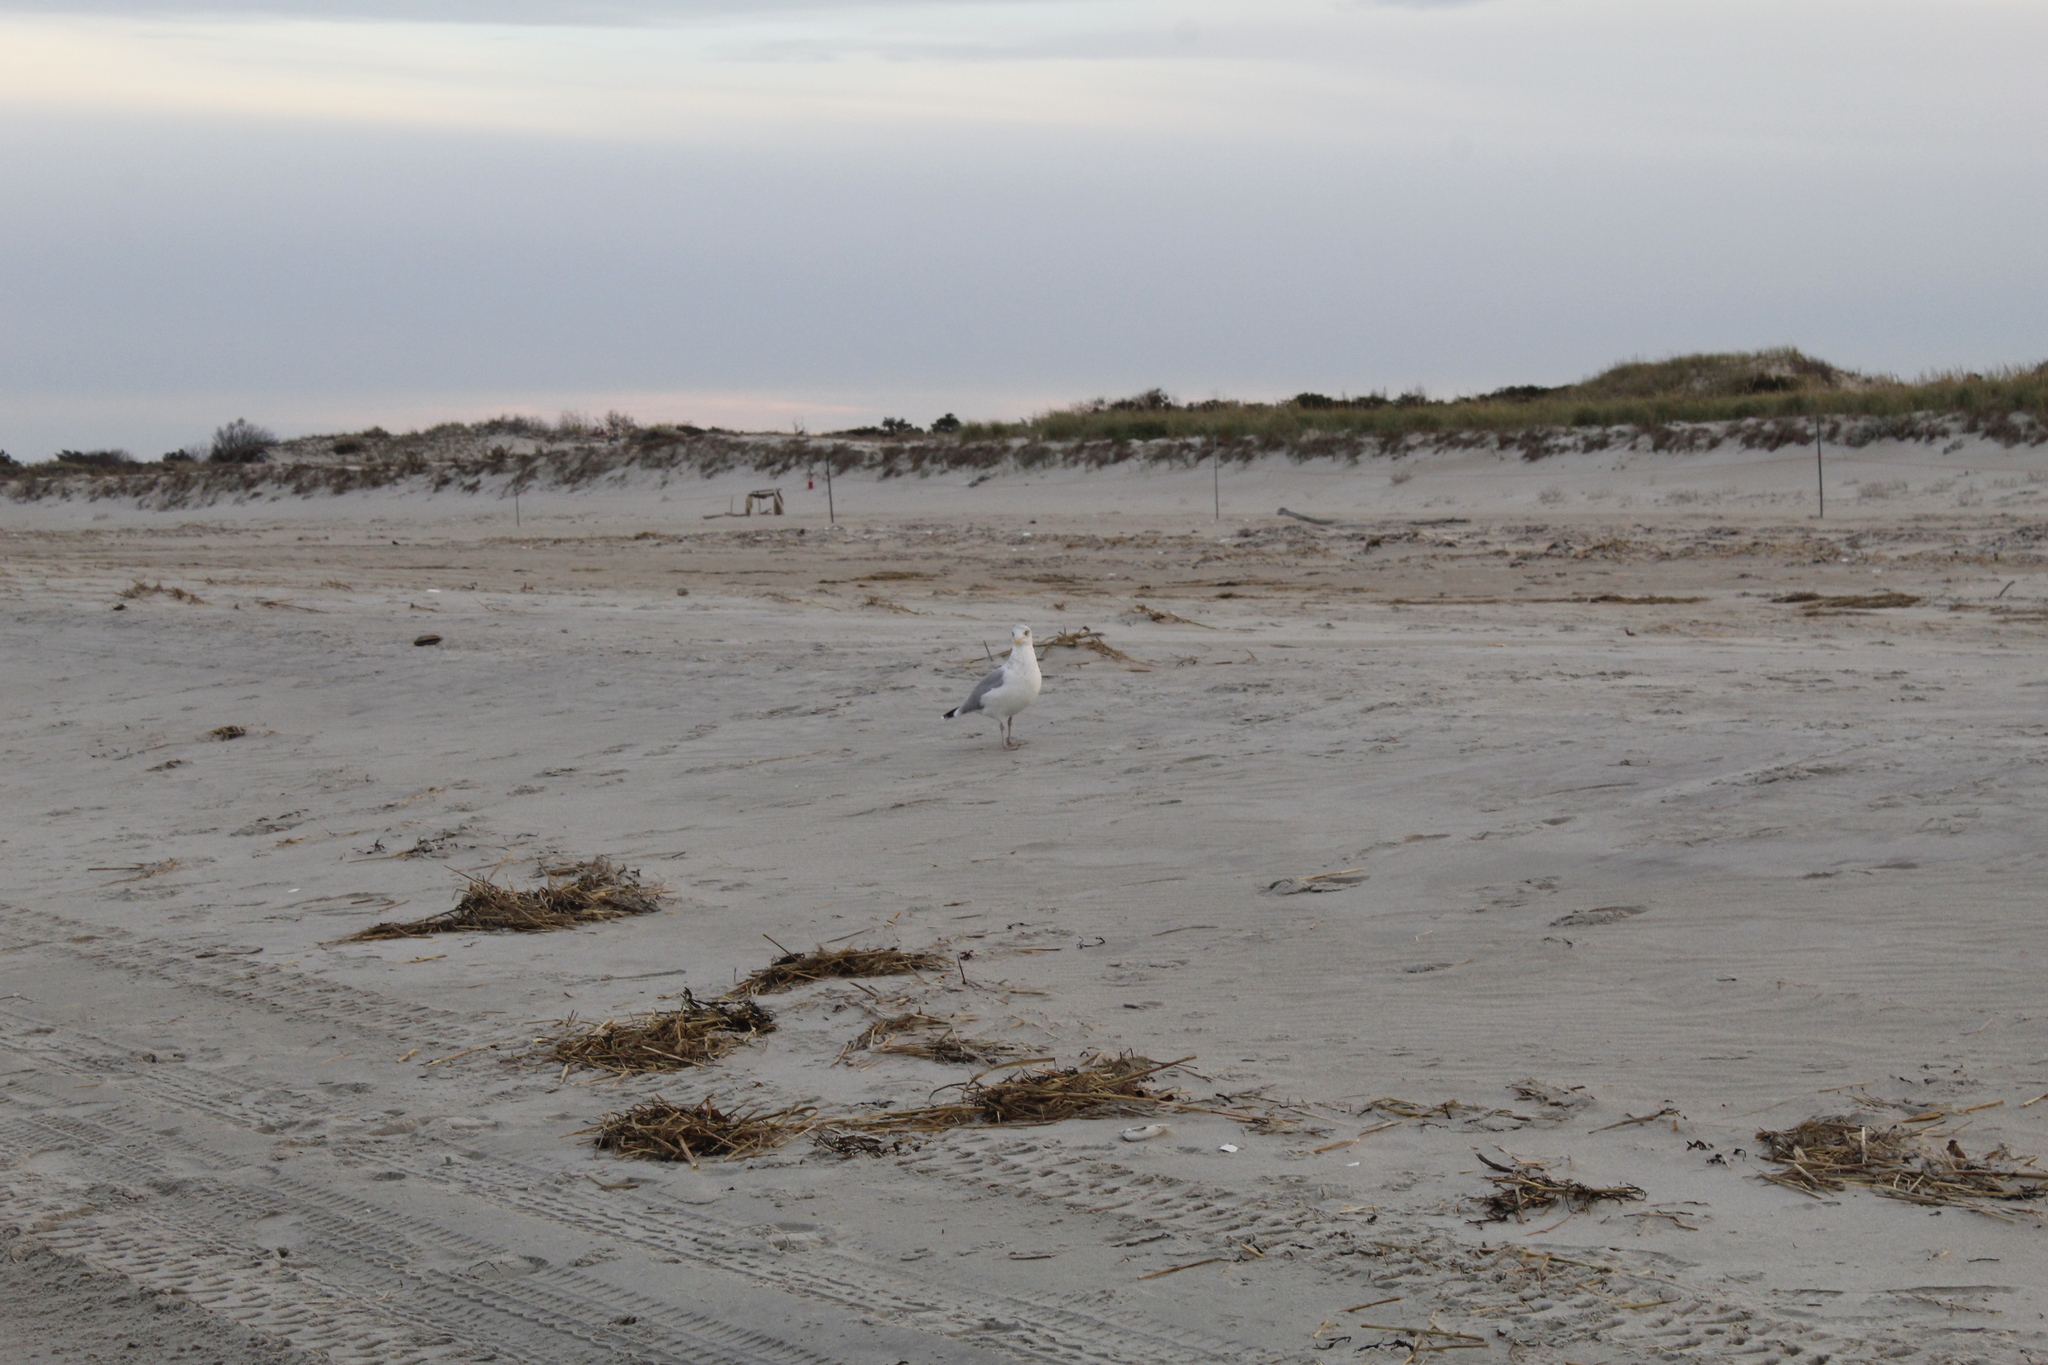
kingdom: Animalia
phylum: Chordata
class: Aves
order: Charadriiformes
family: Laridae
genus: Larus
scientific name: Larus smithsonianus
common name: American herring gull
